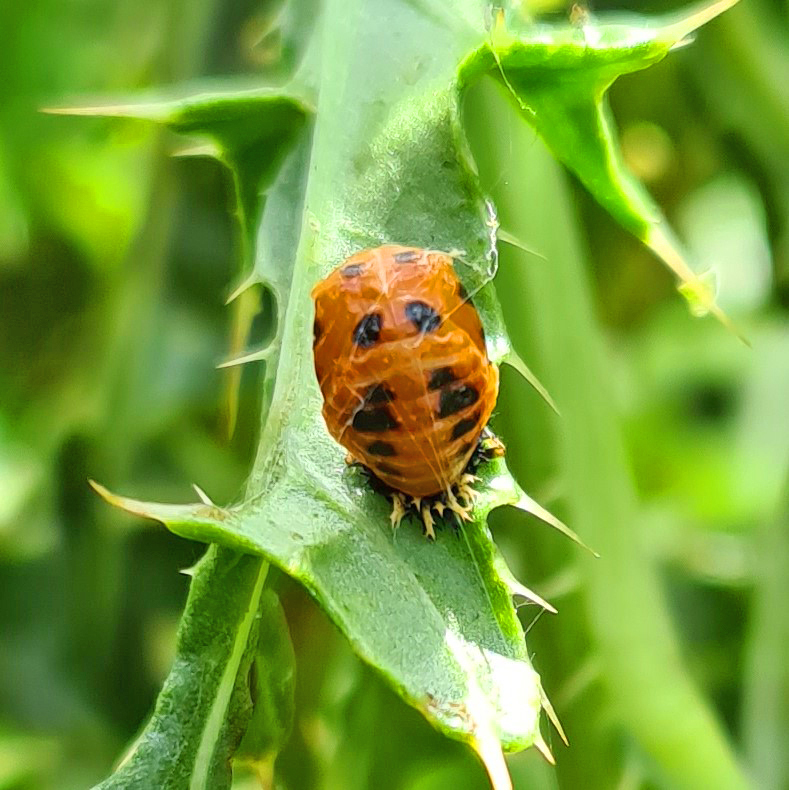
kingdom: Animalia
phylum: Arthropoda
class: Insecta
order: Coleoptera
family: Coccinellidae
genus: Harmonia
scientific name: Harmonia axyridis
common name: Harlequin ladybird
